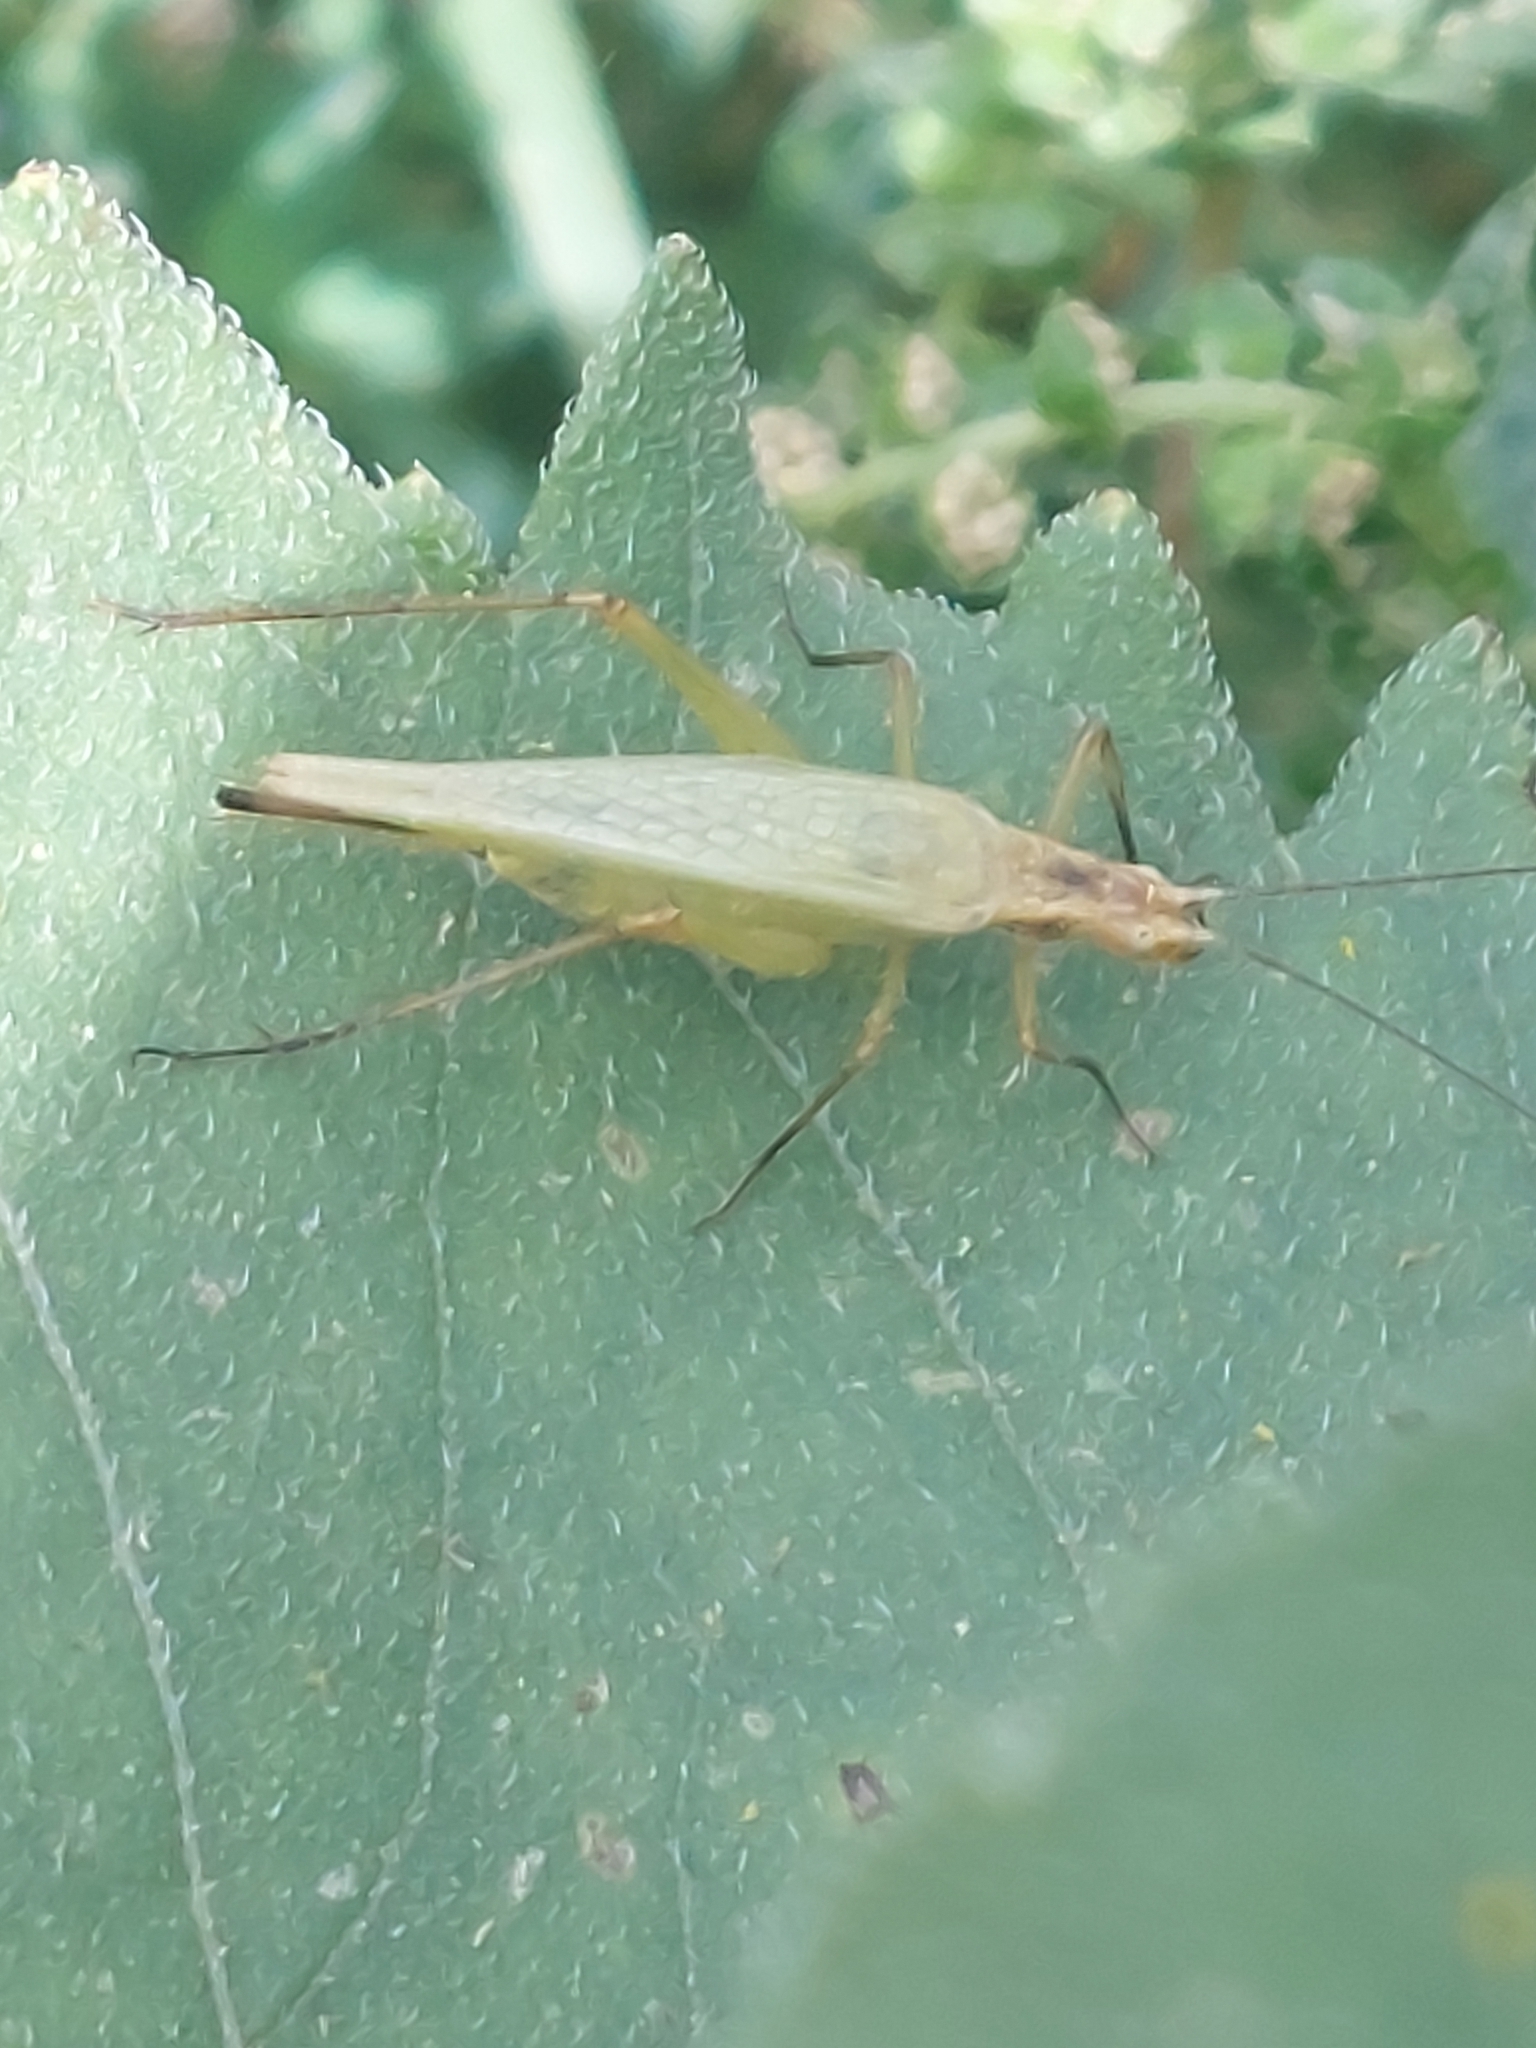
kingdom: Animalia
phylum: Arthropoda
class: Insecta
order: Orthoptera
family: Gryllidae
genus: Oecanthus
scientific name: Oecanthus nigricornis
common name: Black-horned tree cricket
